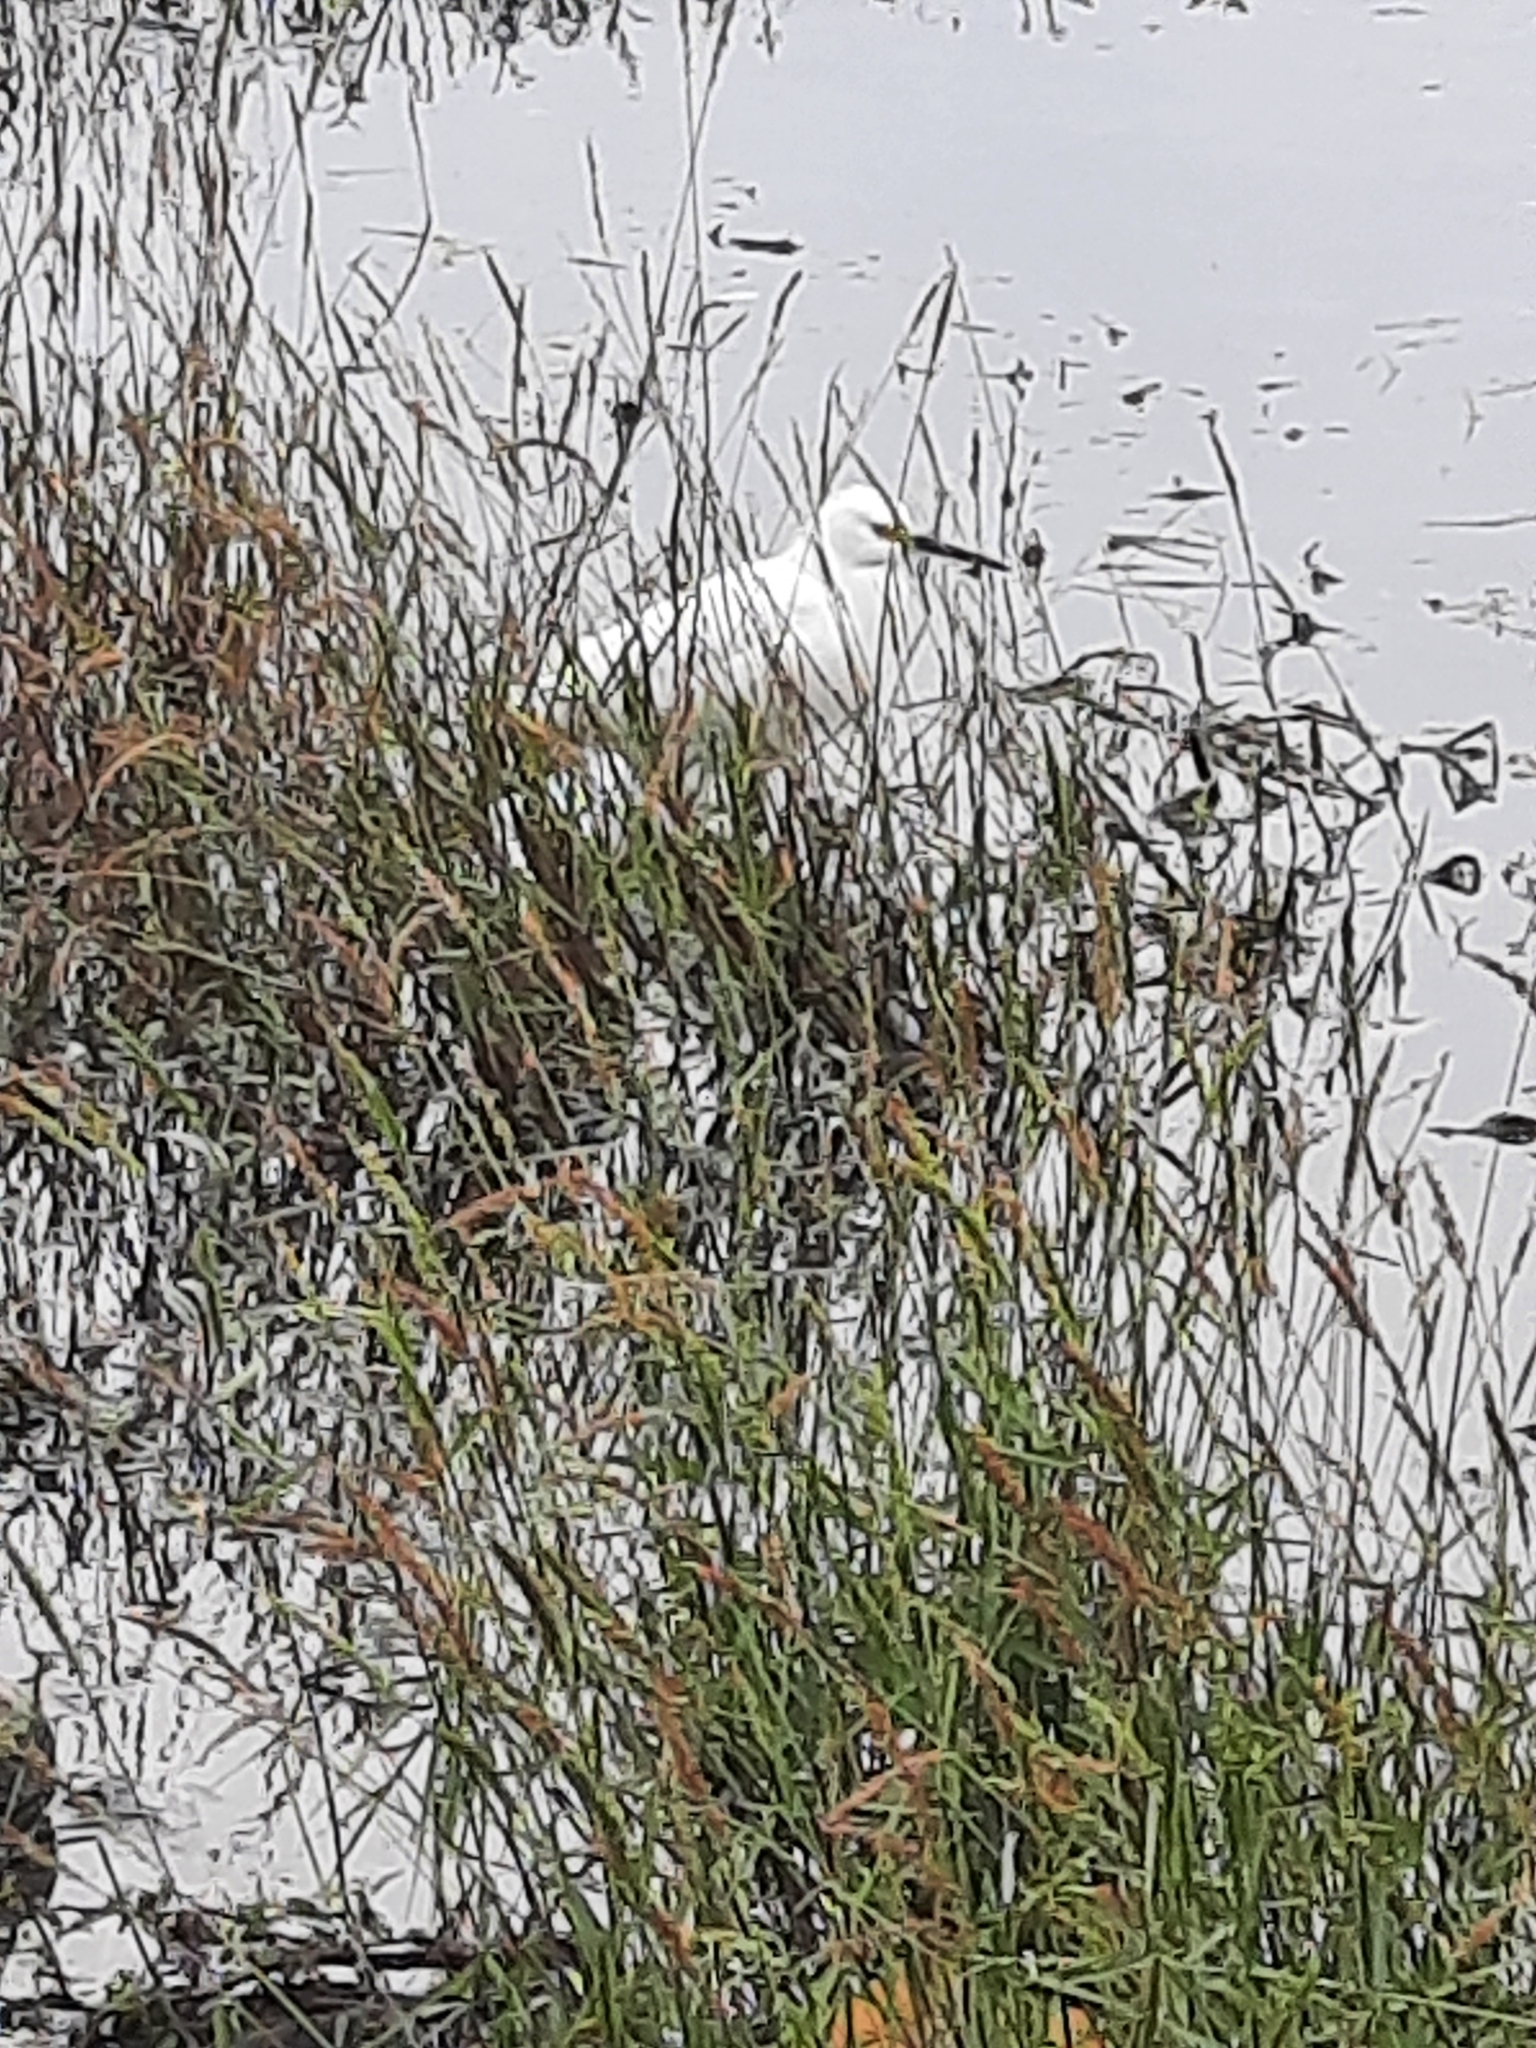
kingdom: Animalia
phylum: Chordata
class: Aves
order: Pelecaniformes
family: Ardeidae
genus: Egretta
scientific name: Egretta thula
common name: Snowy egret
